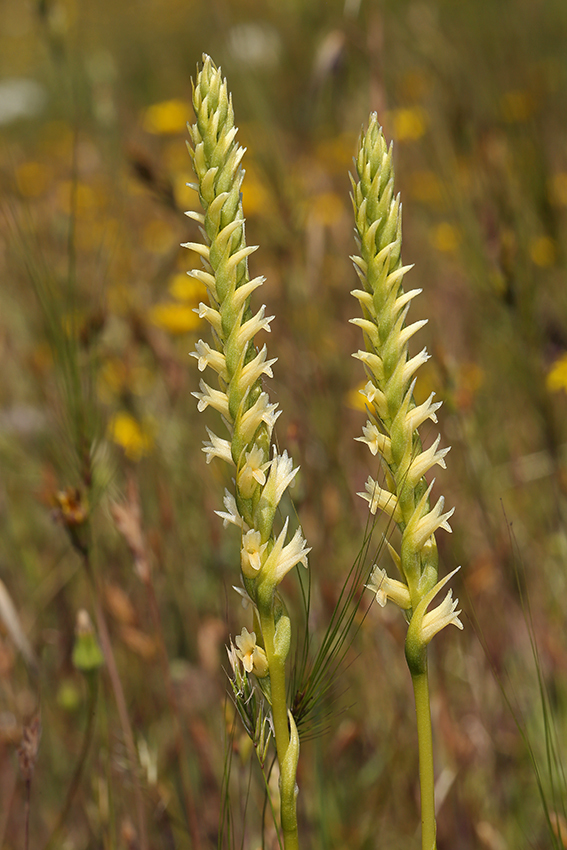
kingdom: Plantae
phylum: Tracheophyta
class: Liliopsida
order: Asparagales
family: Orchidaceae
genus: Spiranthes
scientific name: Spiranthes porrifolia
